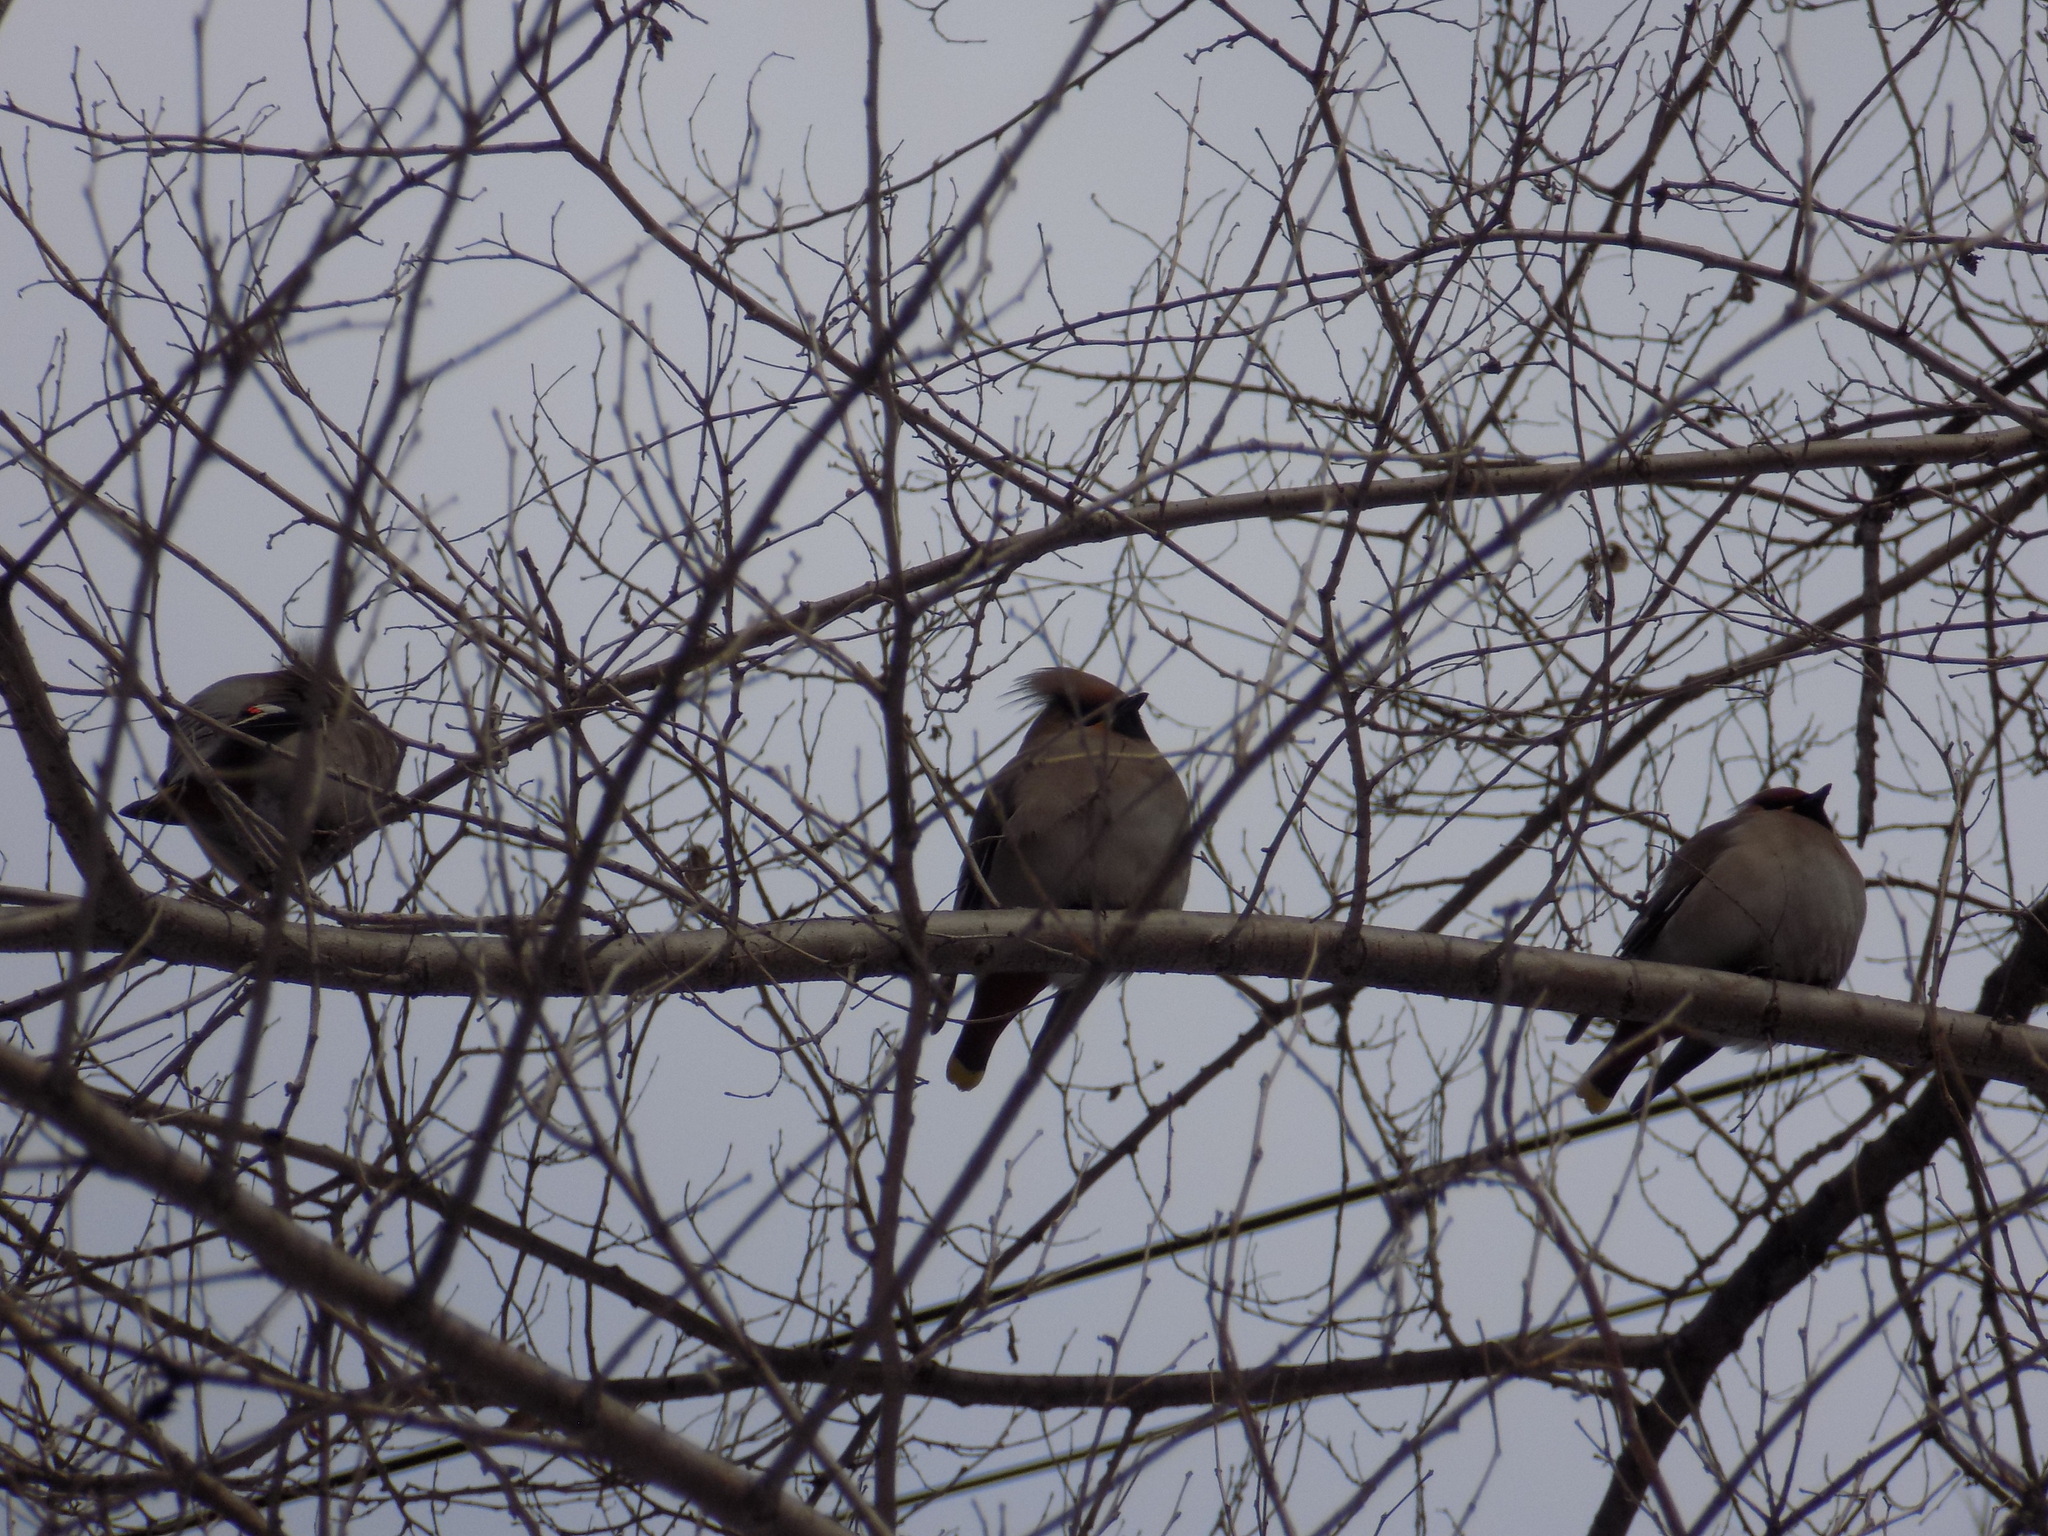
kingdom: Animalia
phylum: Chordata
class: Aves
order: Passeriformes
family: Bombycillidae
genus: Bombycilla
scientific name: Bombycilla garrulus
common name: Bohemian waxwing
